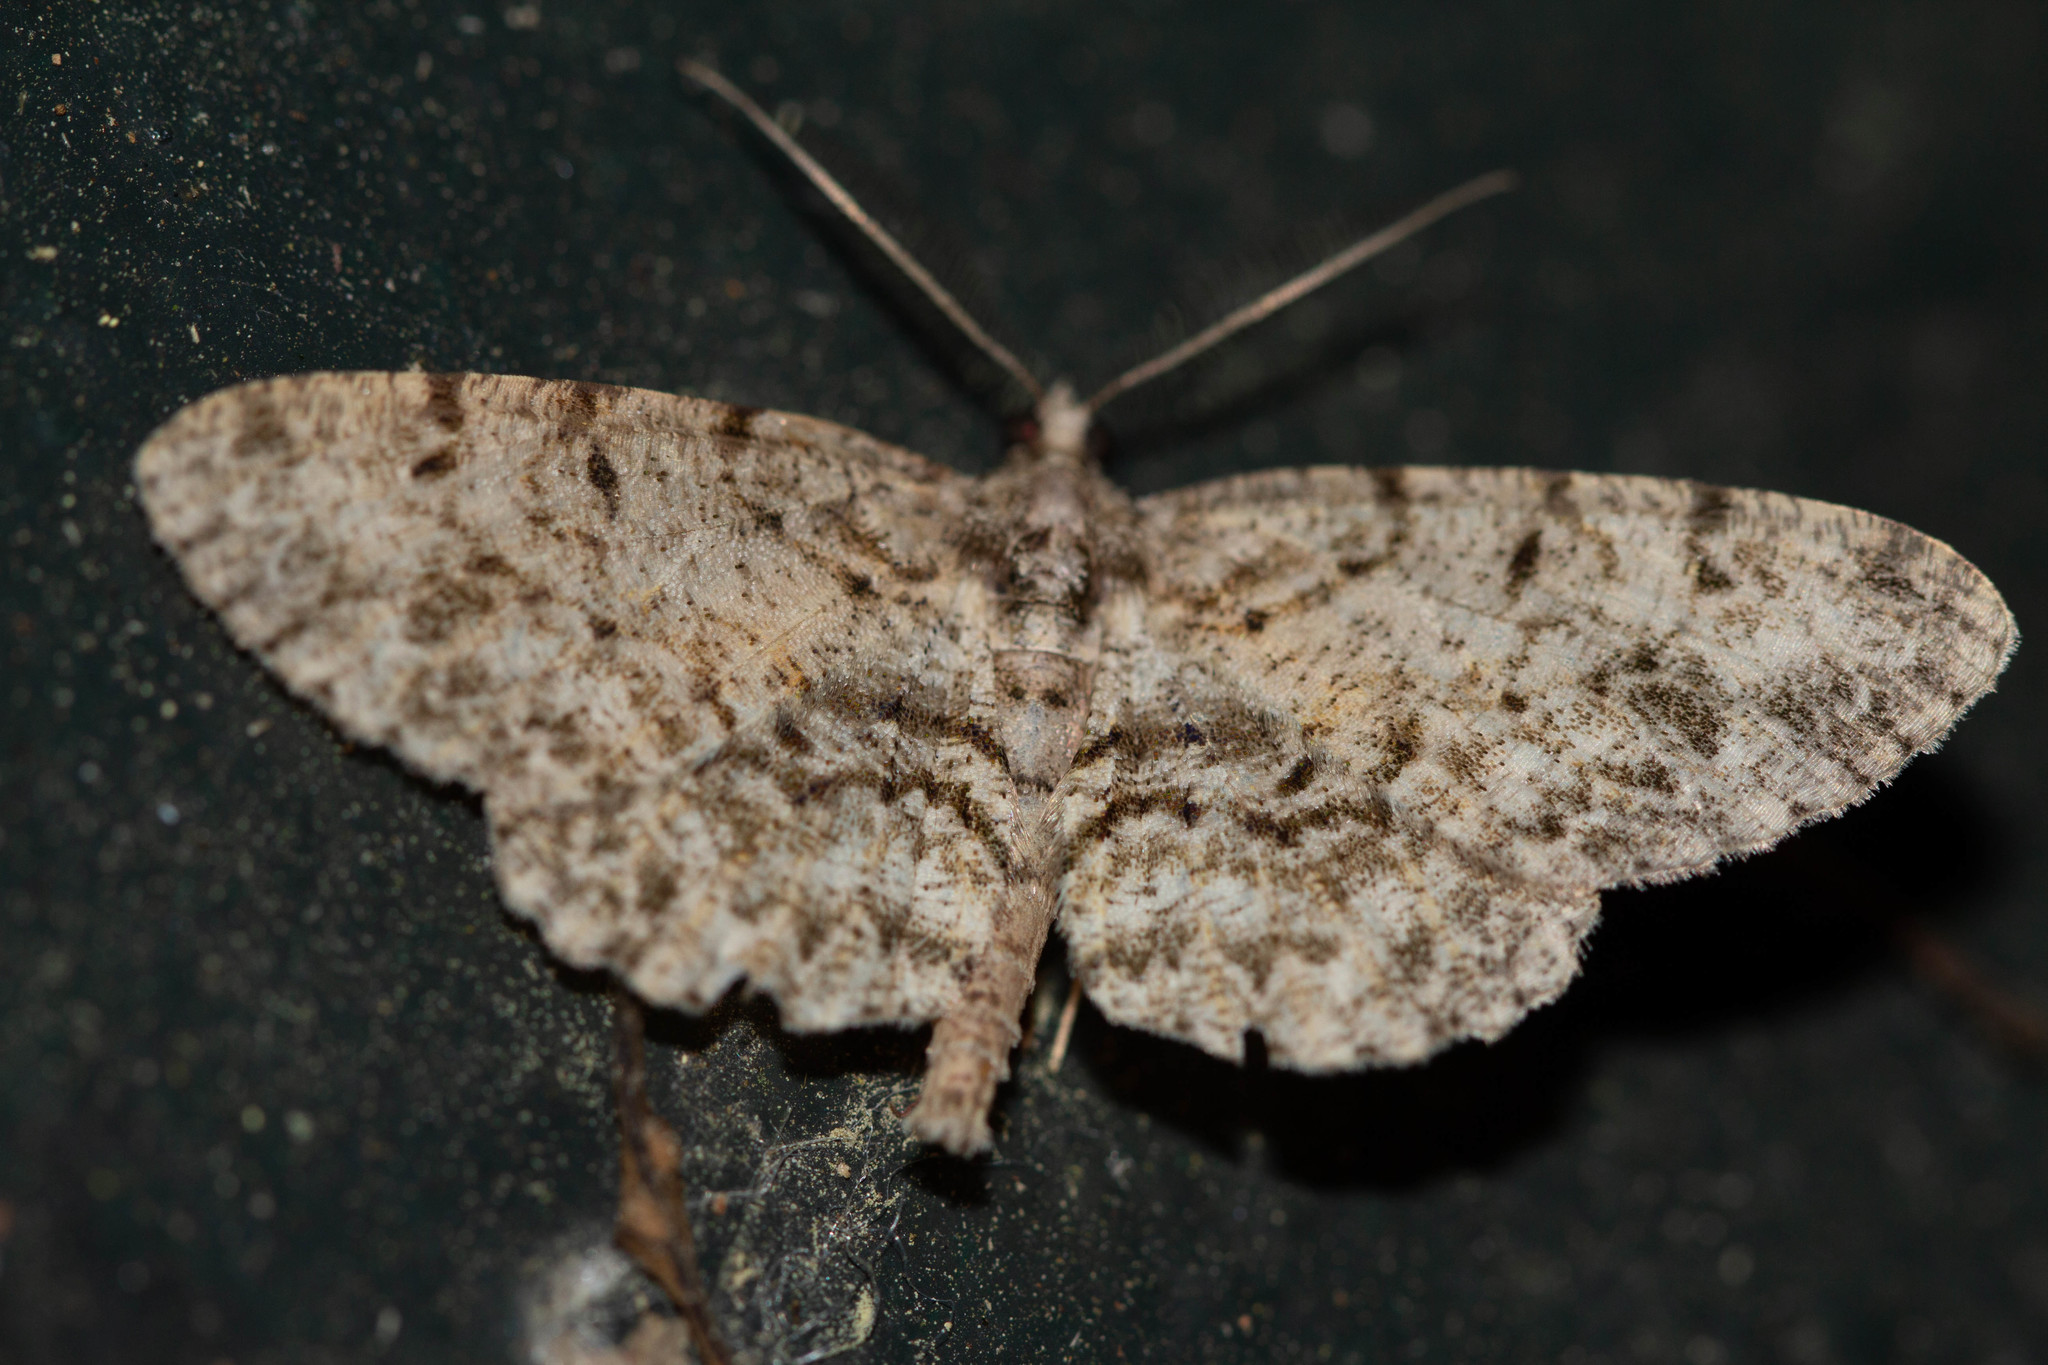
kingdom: Animalia
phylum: Arthropoda
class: Insecta
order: Lepidoptera
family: Geometridae
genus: Protoboarmia
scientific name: Protoboarmia porcelaria
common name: Porcelain gray
